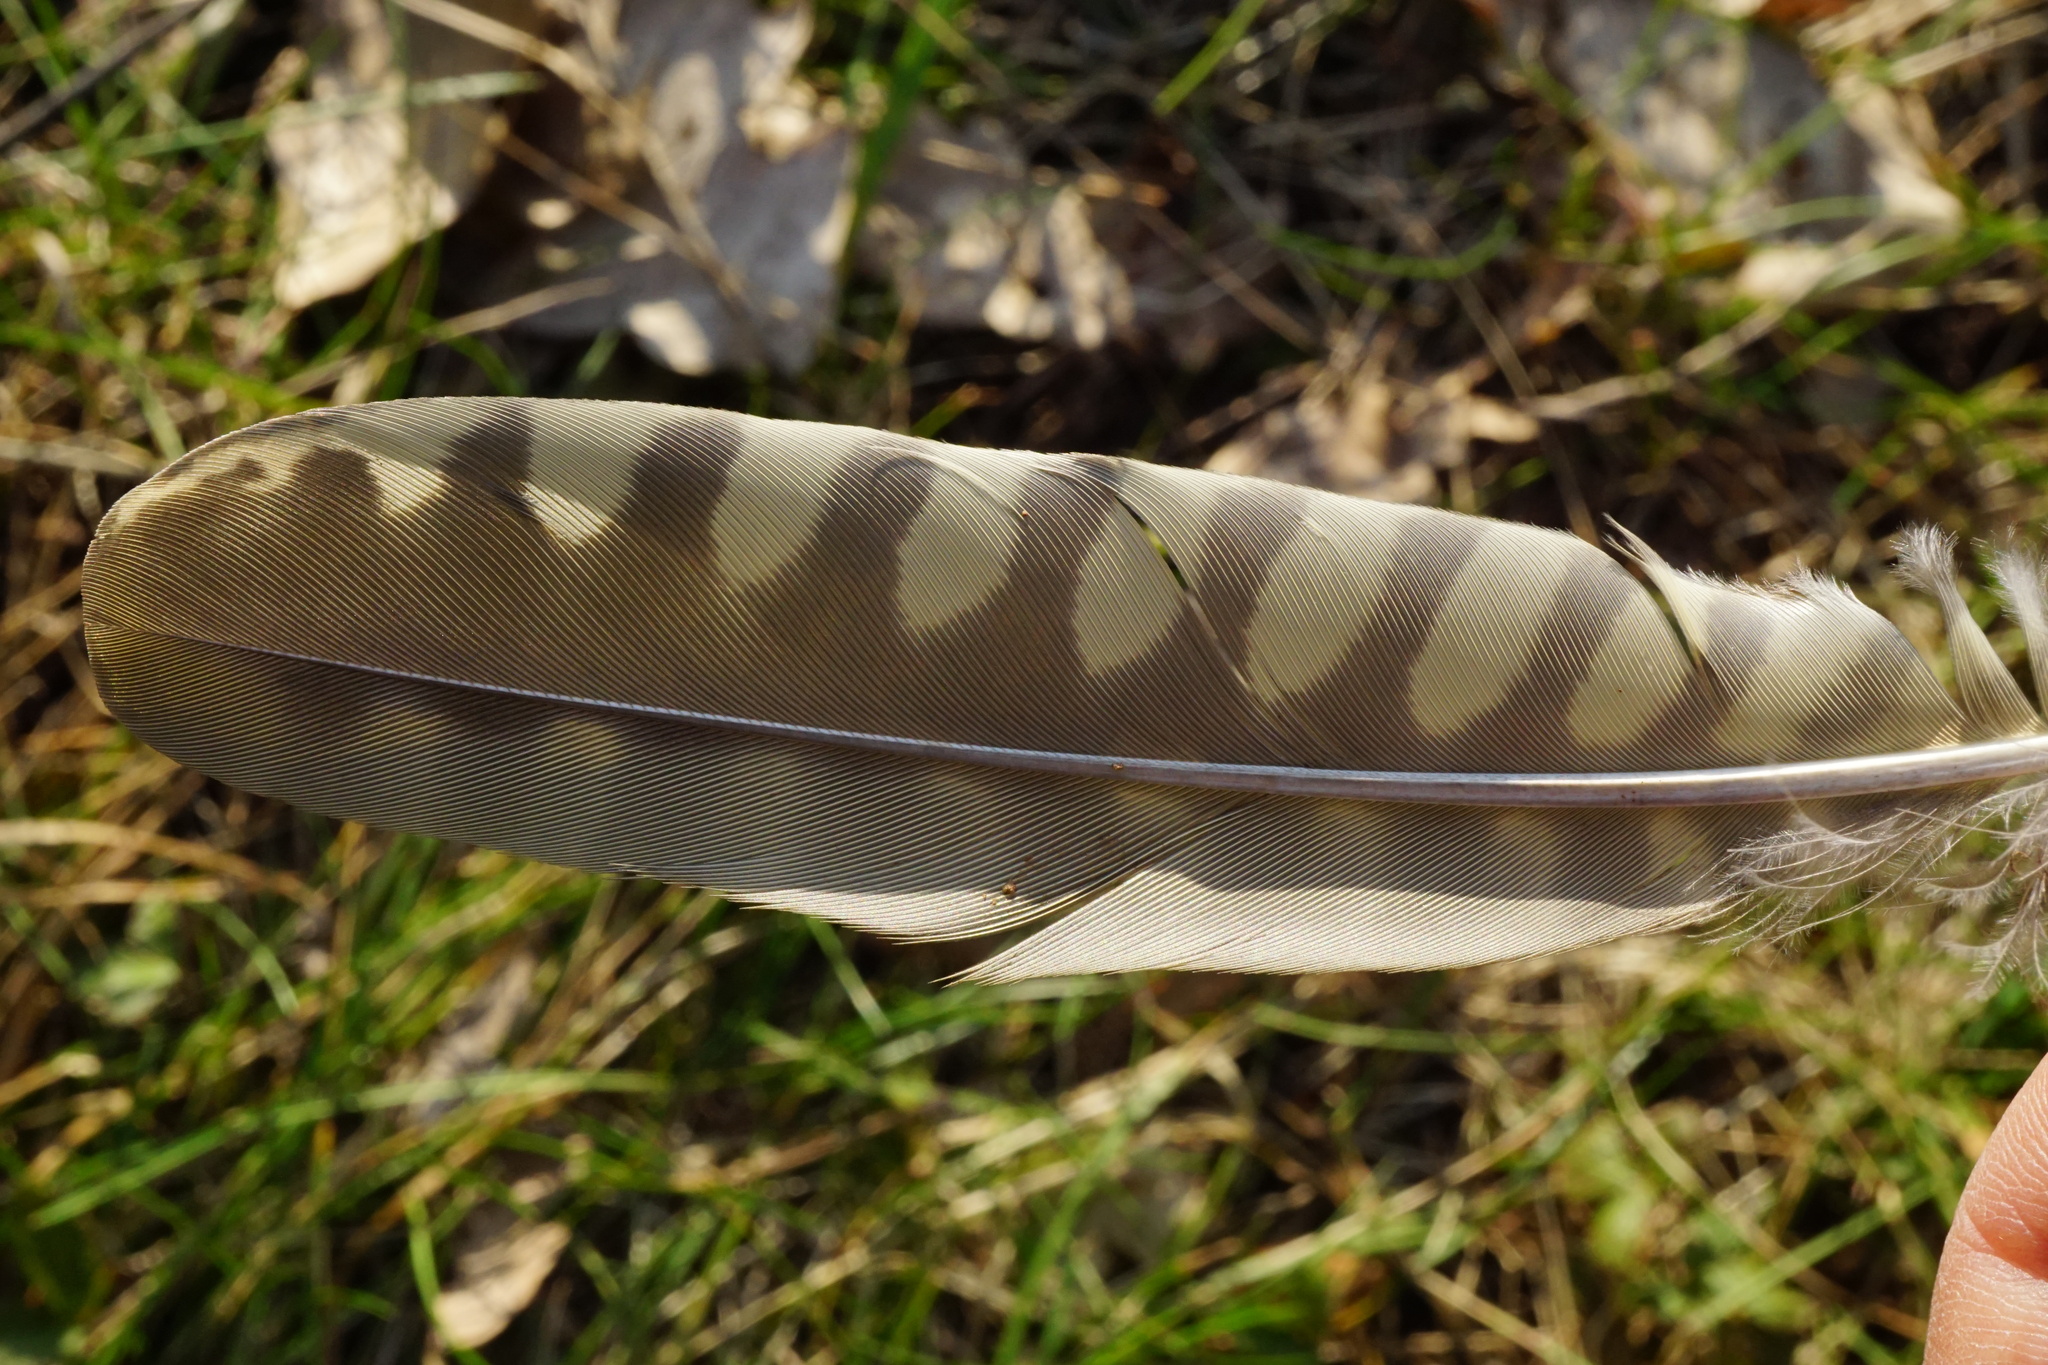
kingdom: Animalia
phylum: Chordata
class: Aves
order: Piciformes
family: Picidae
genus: Picus
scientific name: Picus viridis
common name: European green woodpecker
